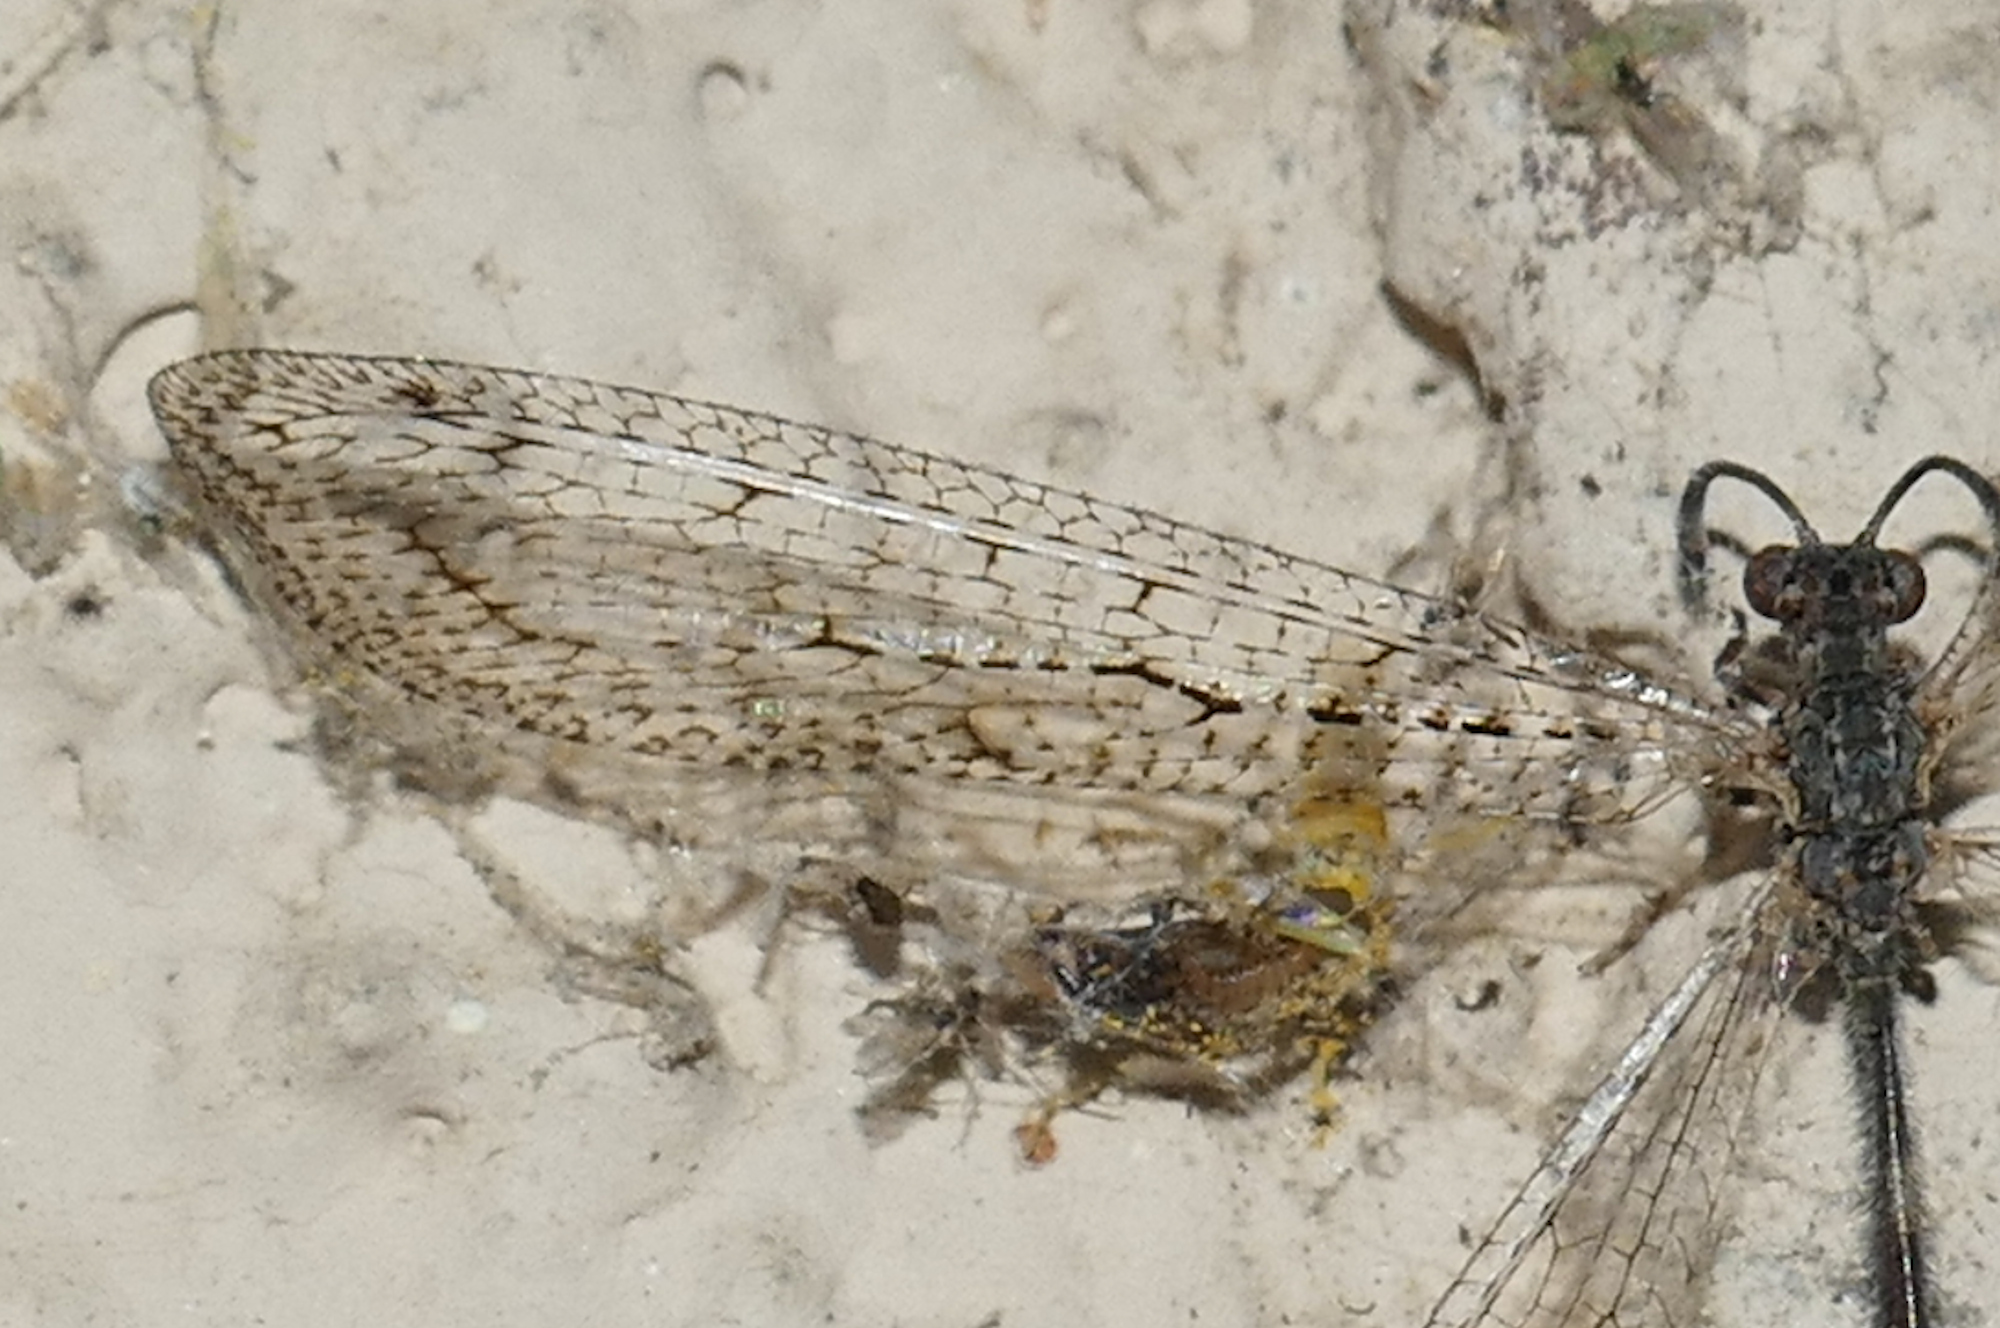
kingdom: Animalia
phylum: Arthropoda
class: Insecta
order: Neuroptera
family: Myrmeleontidae
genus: Atricholeon
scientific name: Atricholeon tuberculatus
